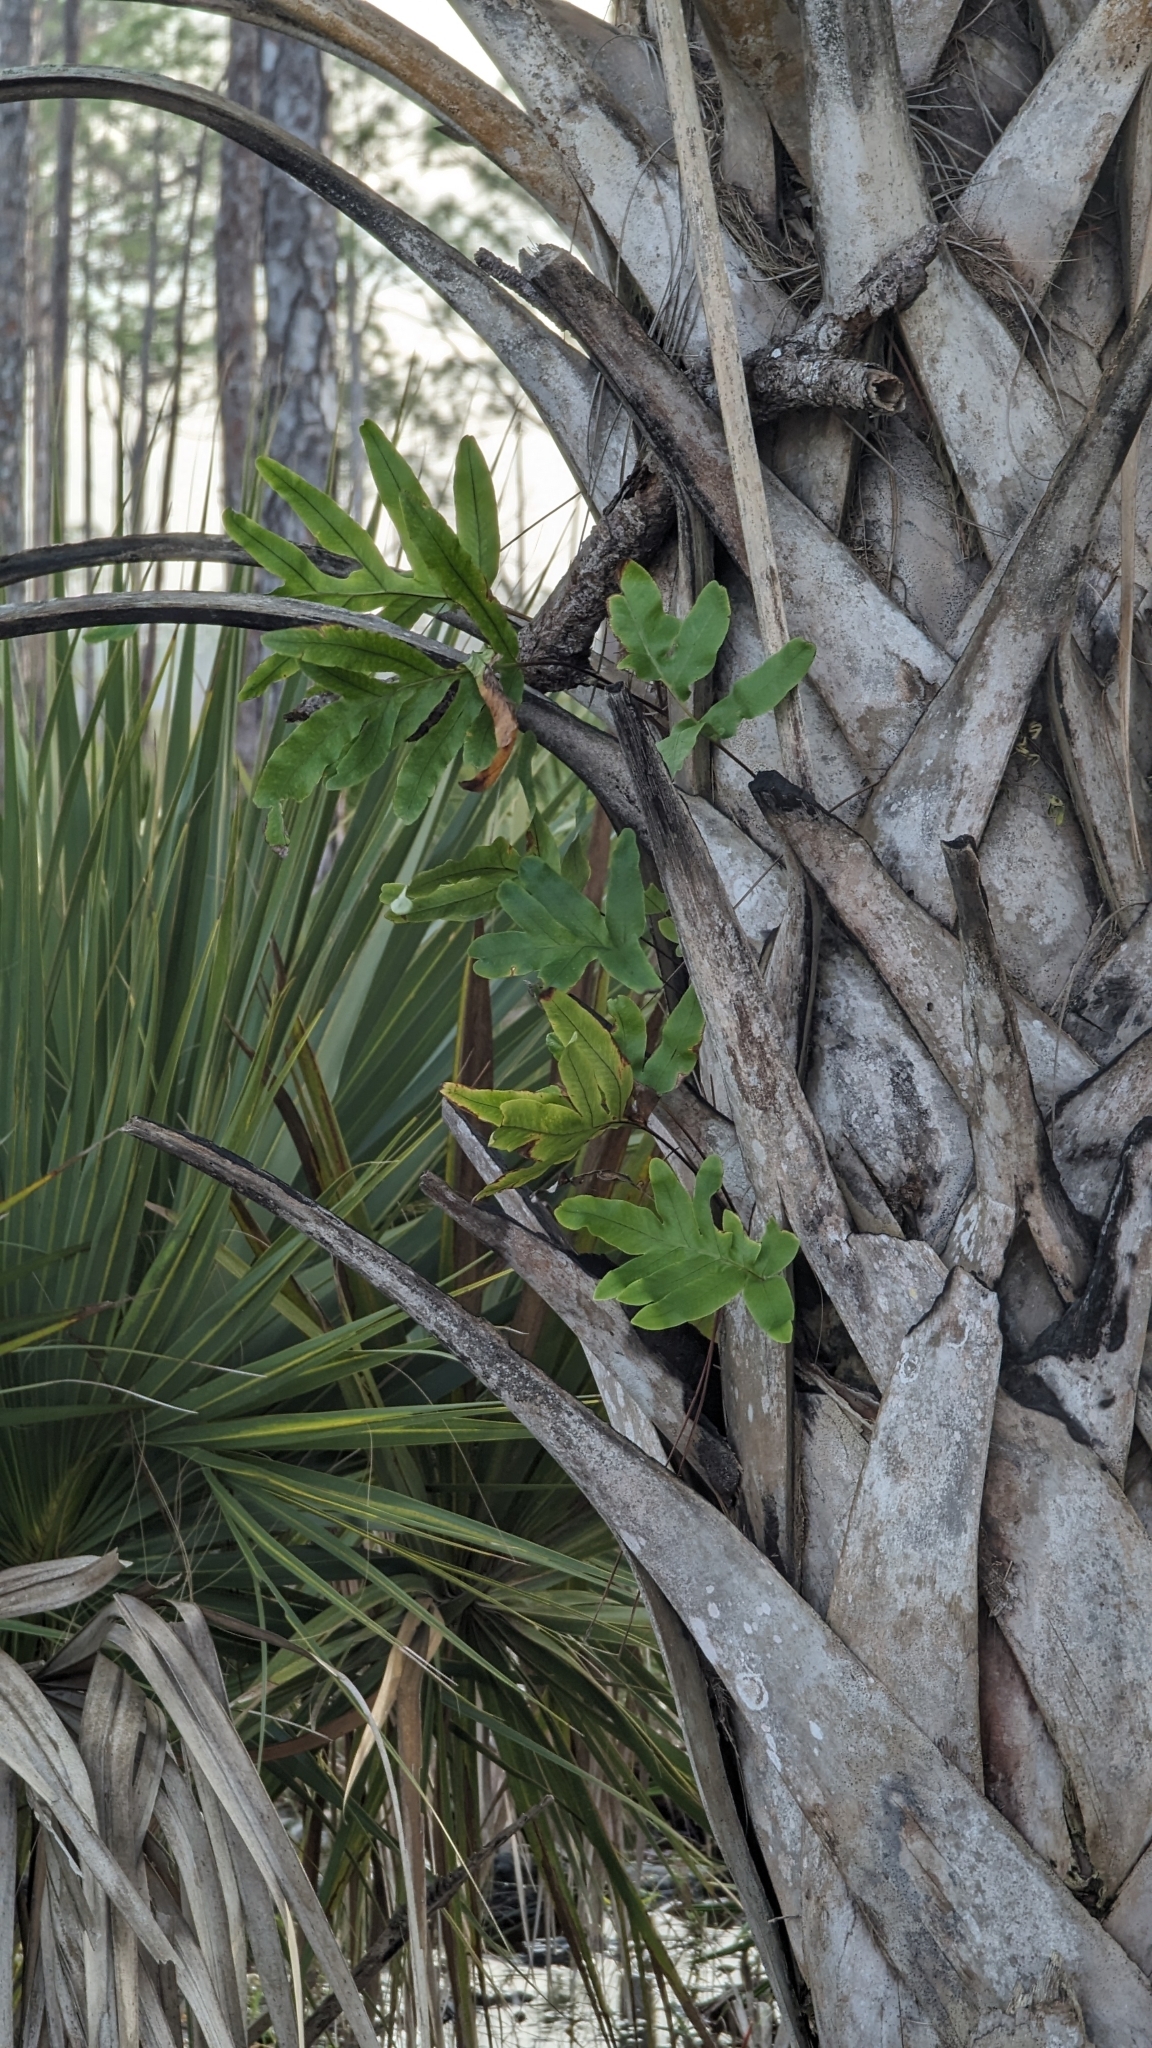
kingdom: Plantae
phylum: Tracheophyta
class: Polypodiopsida
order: Polypodiales
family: Polypodiaceae
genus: Phlebodium
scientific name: Phlebodium aureum
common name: Gold-foot fern
